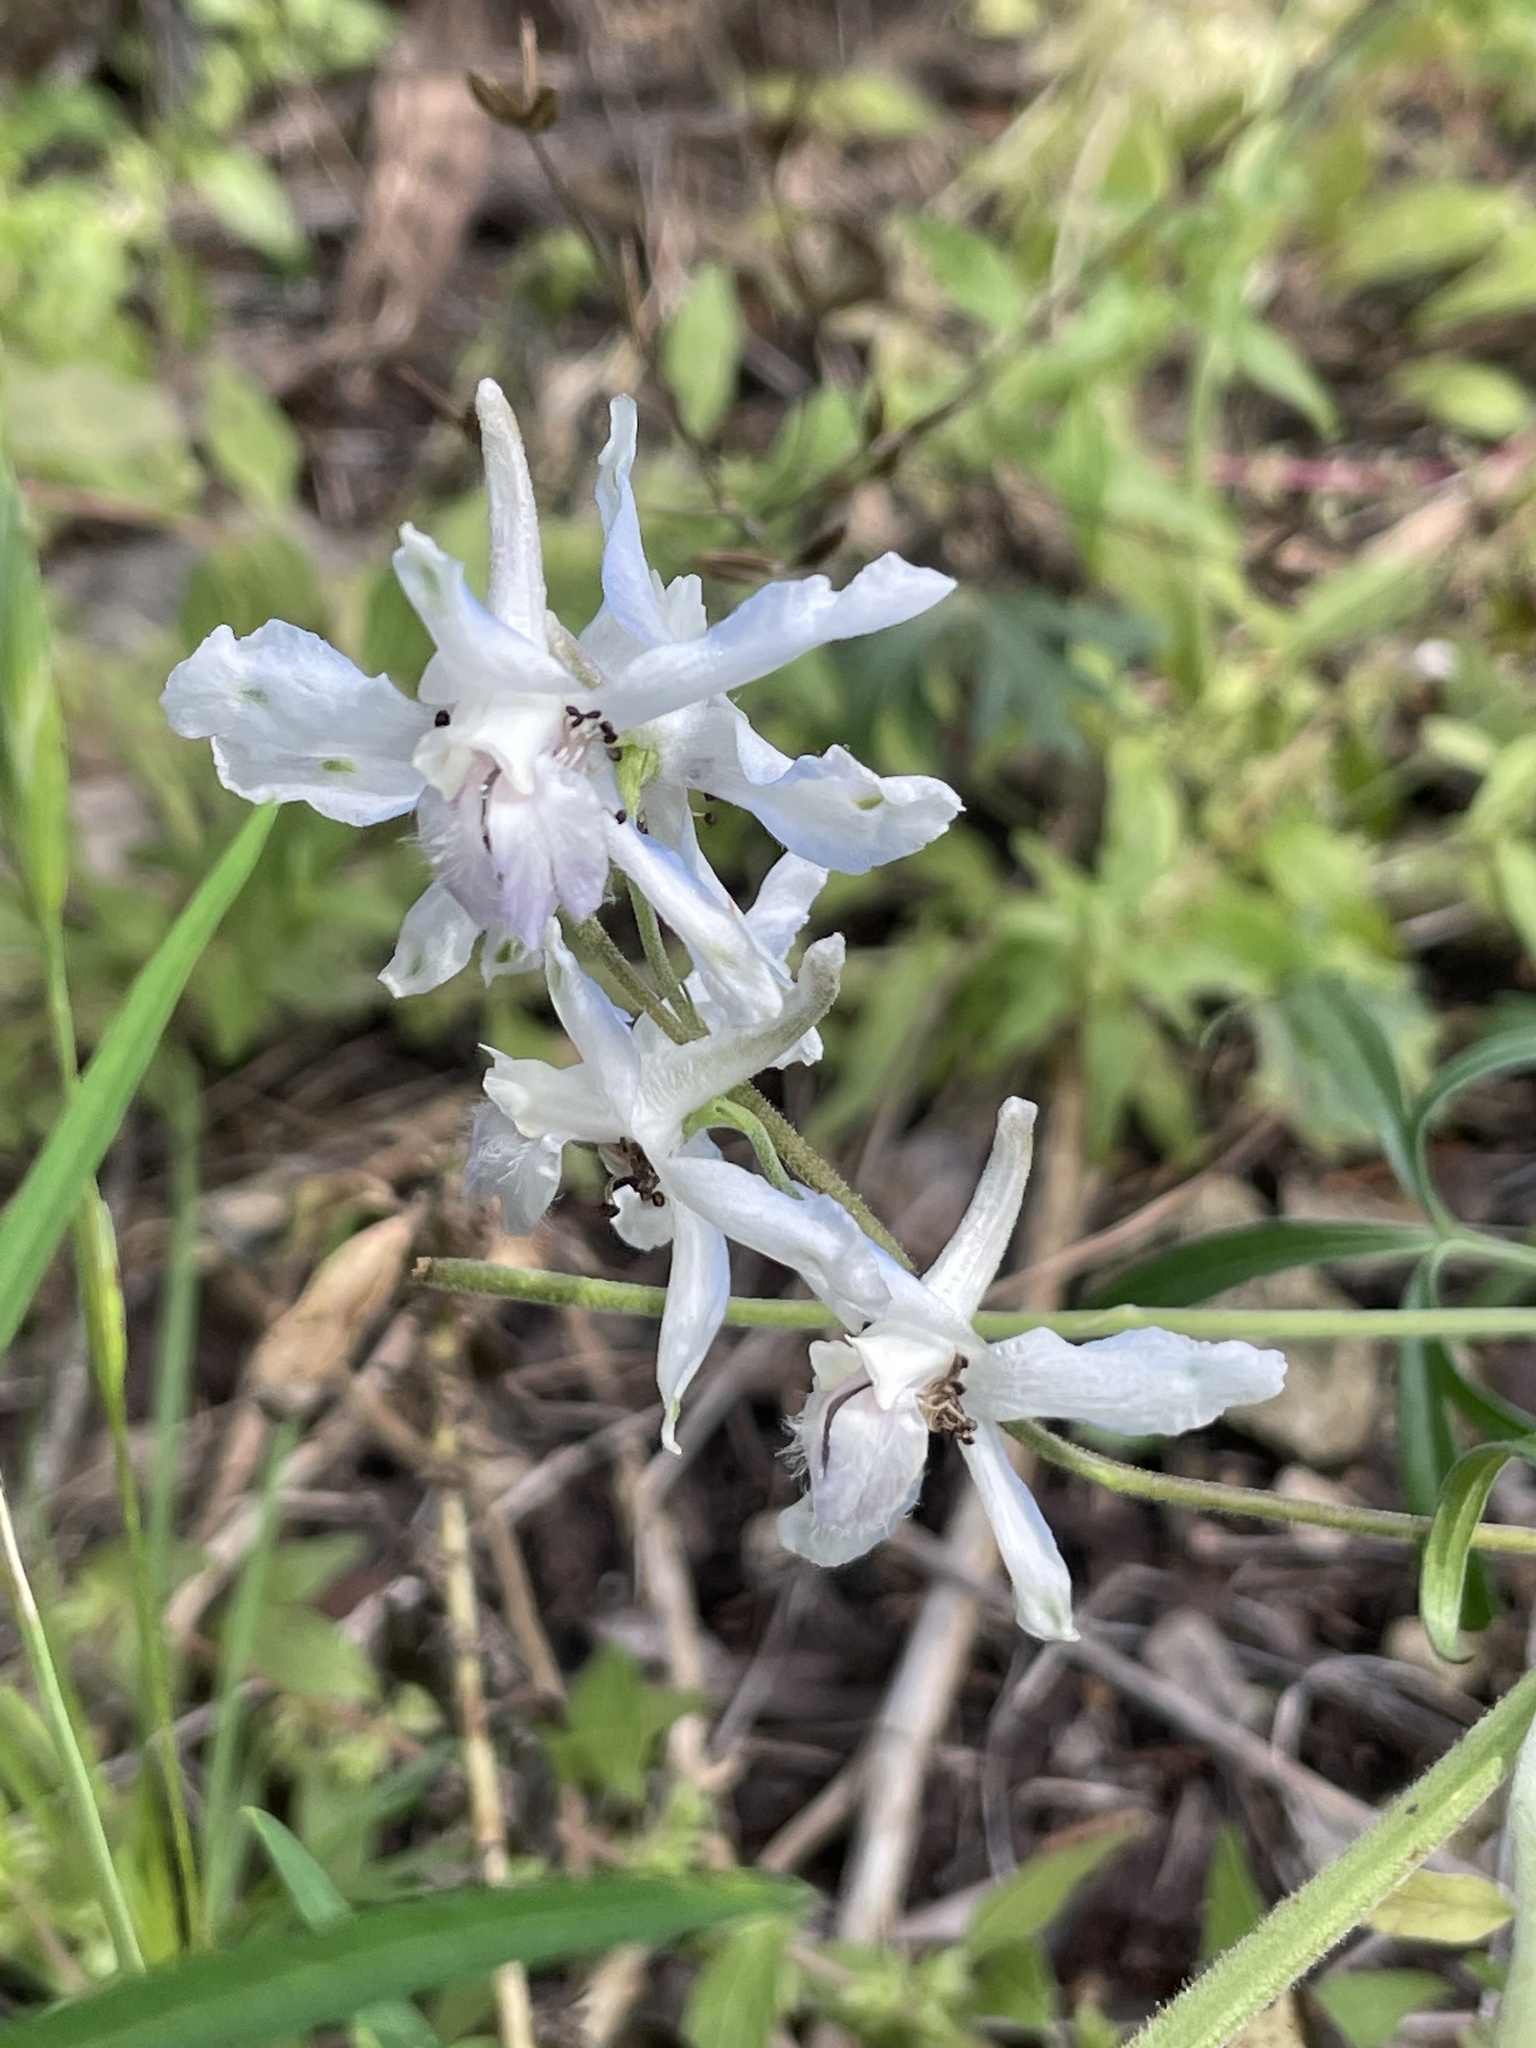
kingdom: Plantae
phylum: Tracheophyta
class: Magnoliopsida
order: Ranunculales
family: Ranunculaceae
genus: Delphinium
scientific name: Delphinium carolinianum
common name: Carolina larkspur
